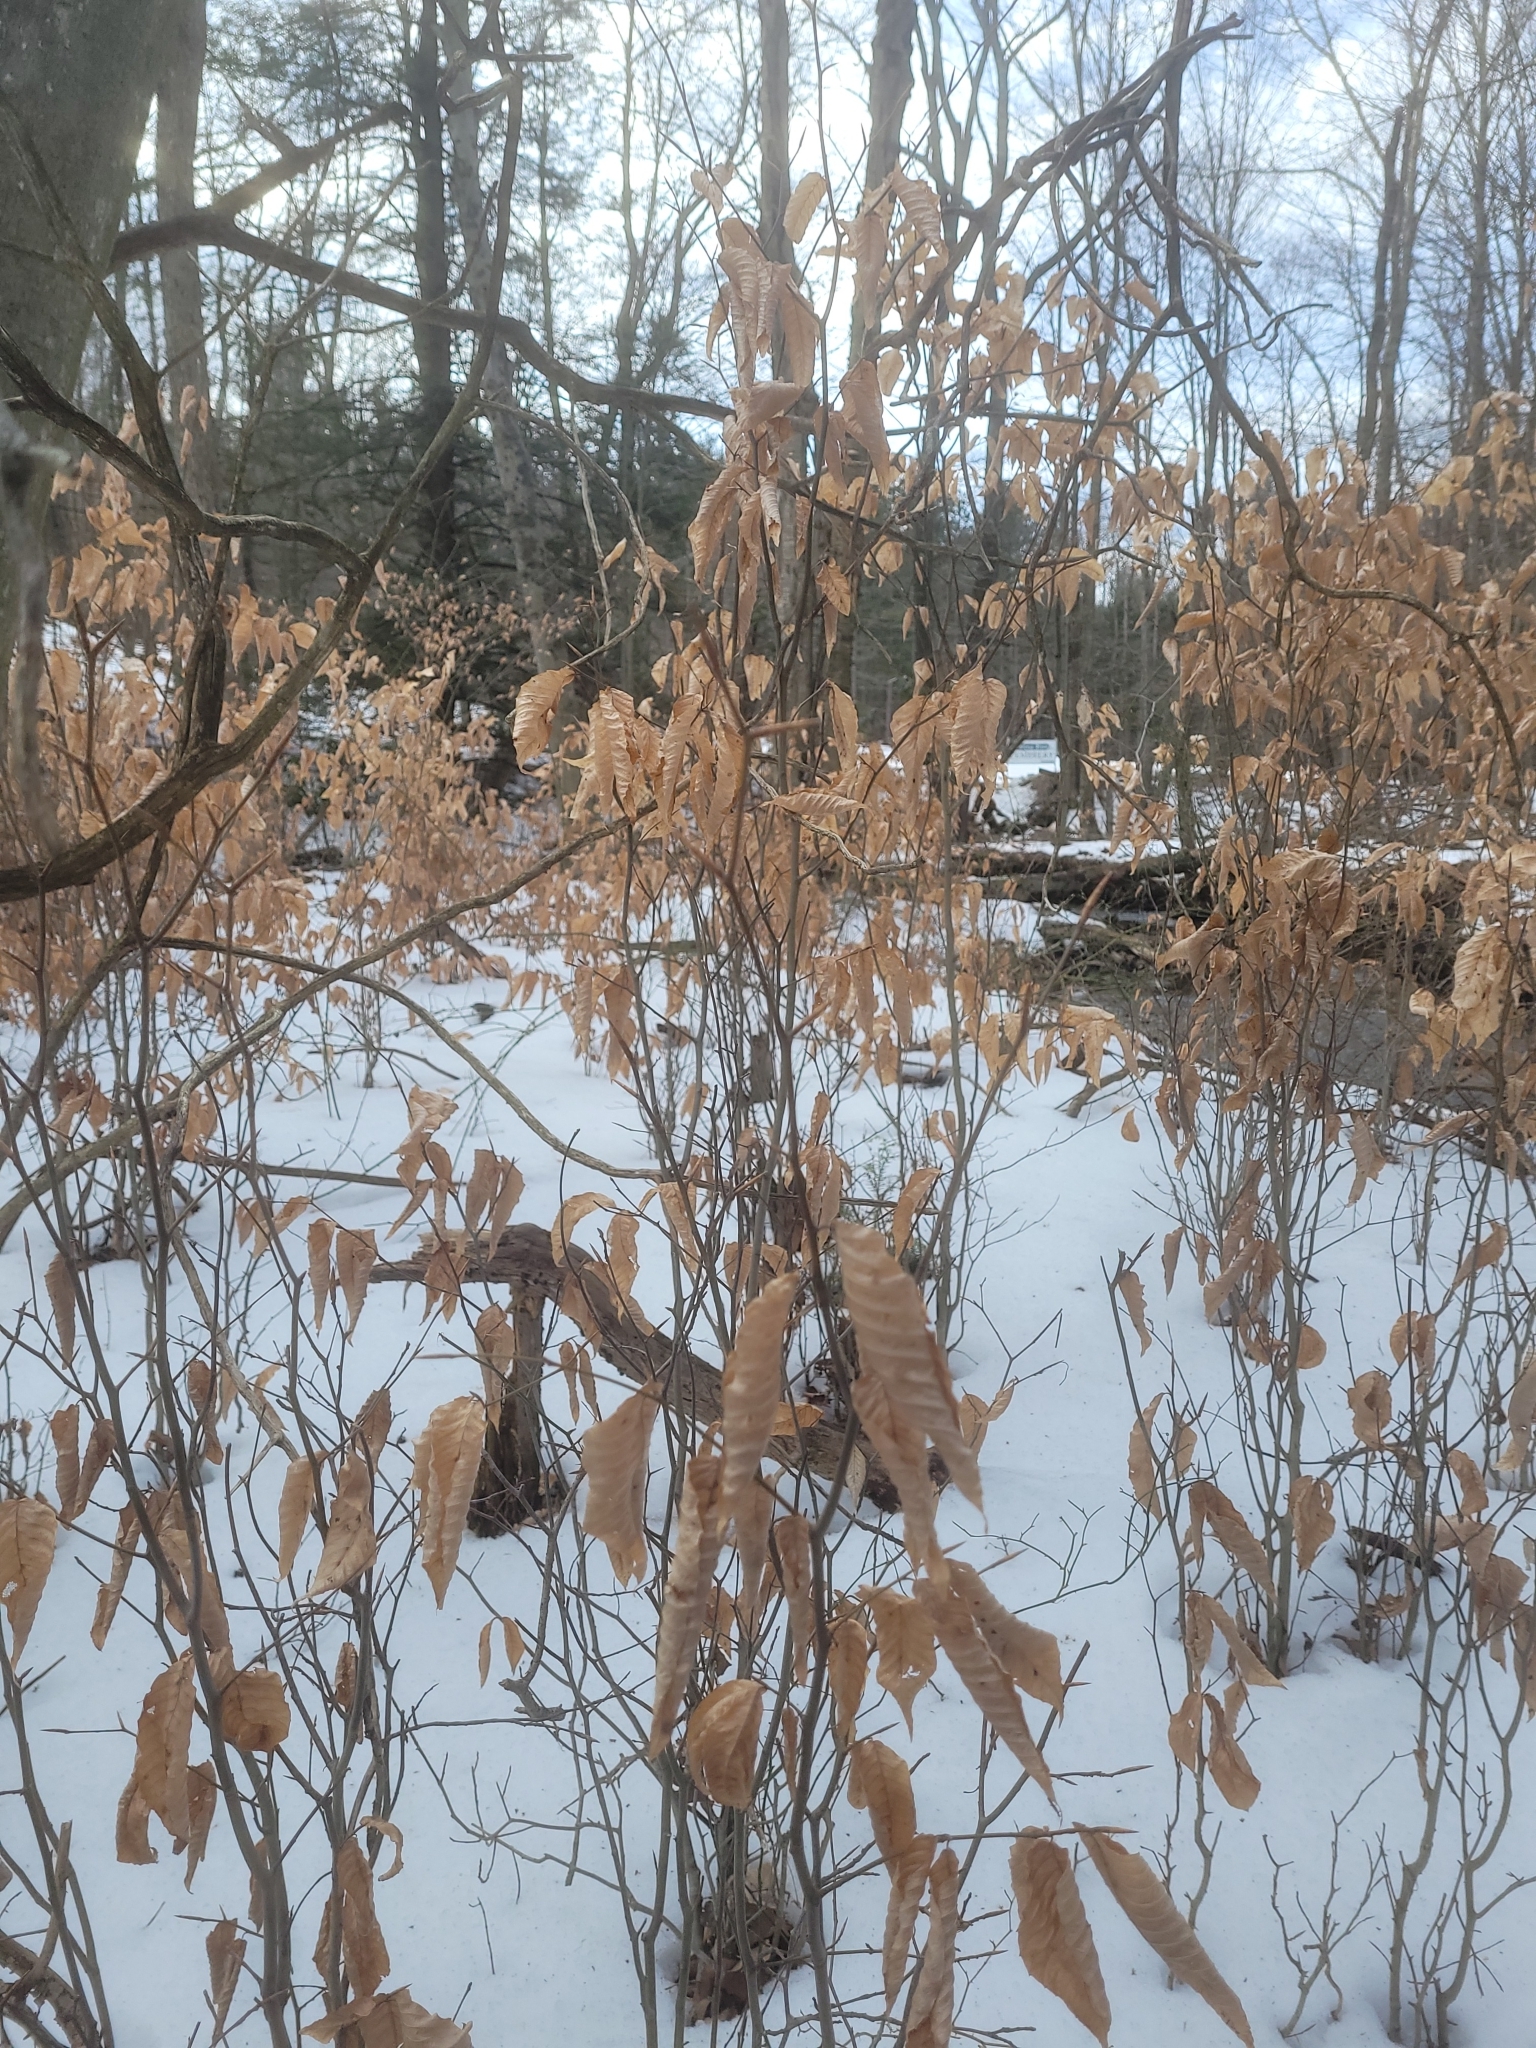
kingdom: Plantae
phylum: Tracheophyta
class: Magnoliopsida
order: Fagales
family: Fagaceae
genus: Fagus
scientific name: Fagus grandifolia
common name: American beech
